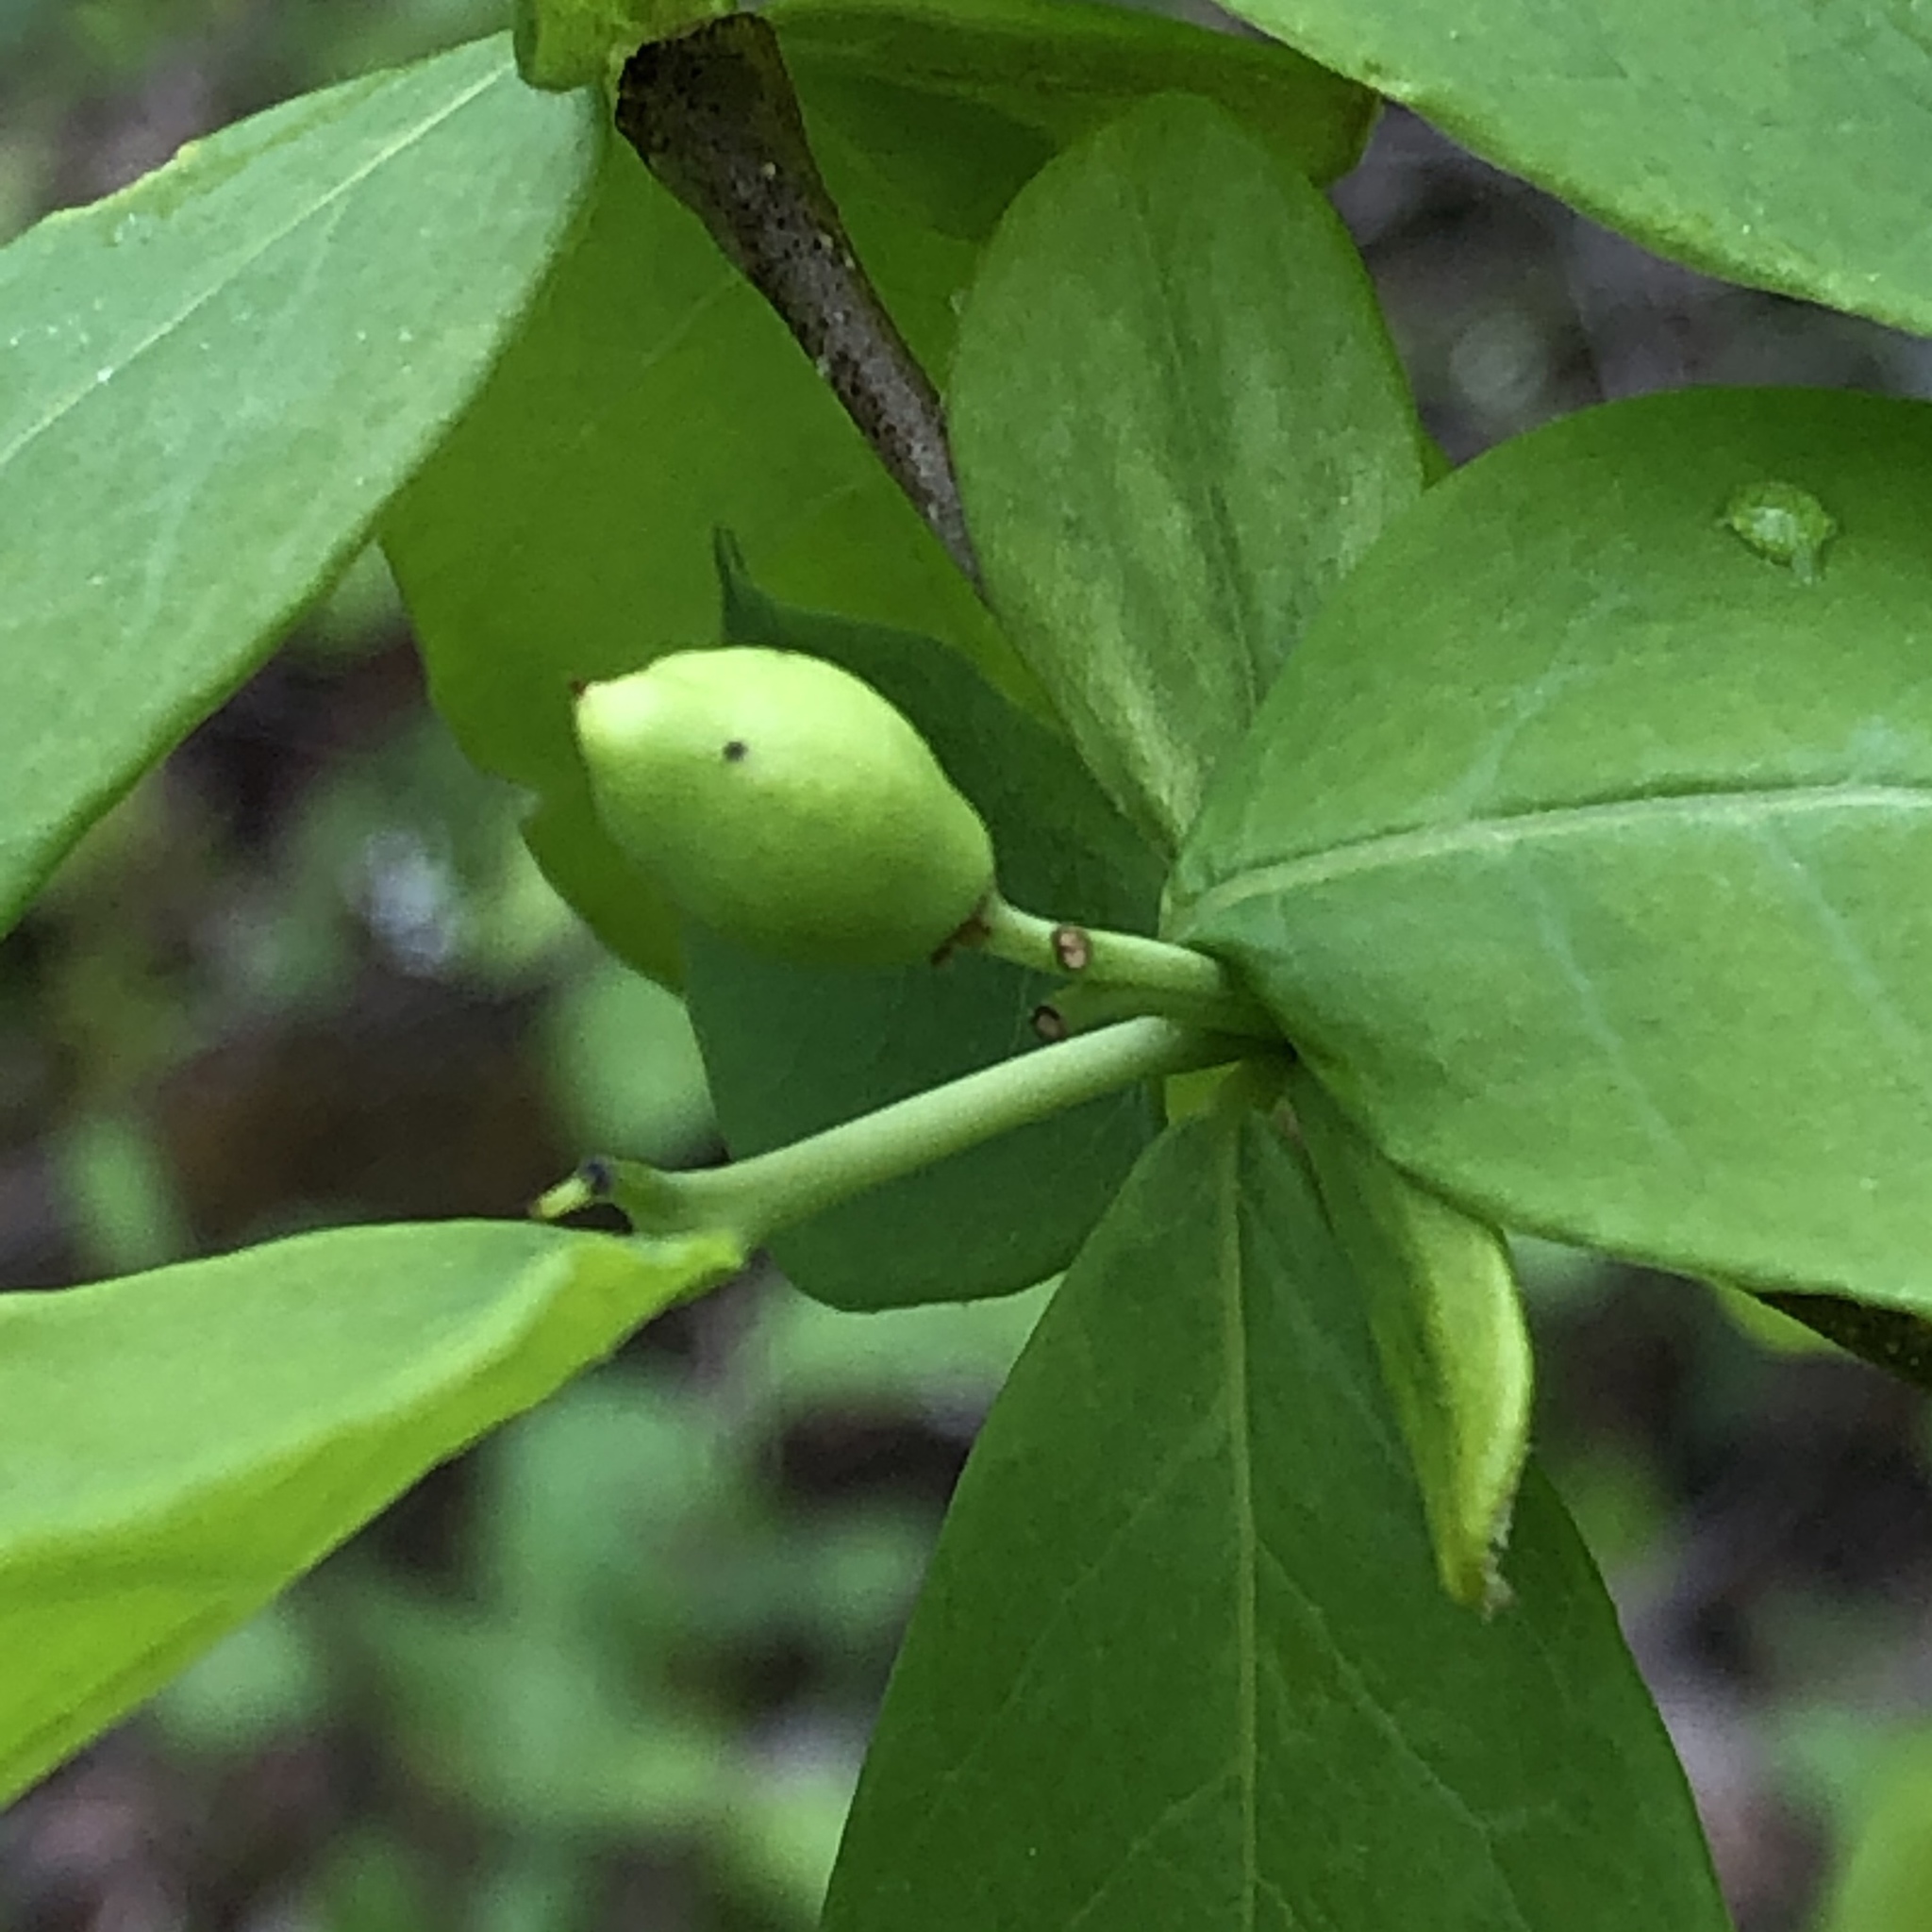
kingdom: Plantae
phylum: Tracheophyta
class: Magnoliopsida
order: Malvales
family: Thymelaeaceae
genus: Dirca
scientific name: Dirca palustris
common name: Leatherwood
